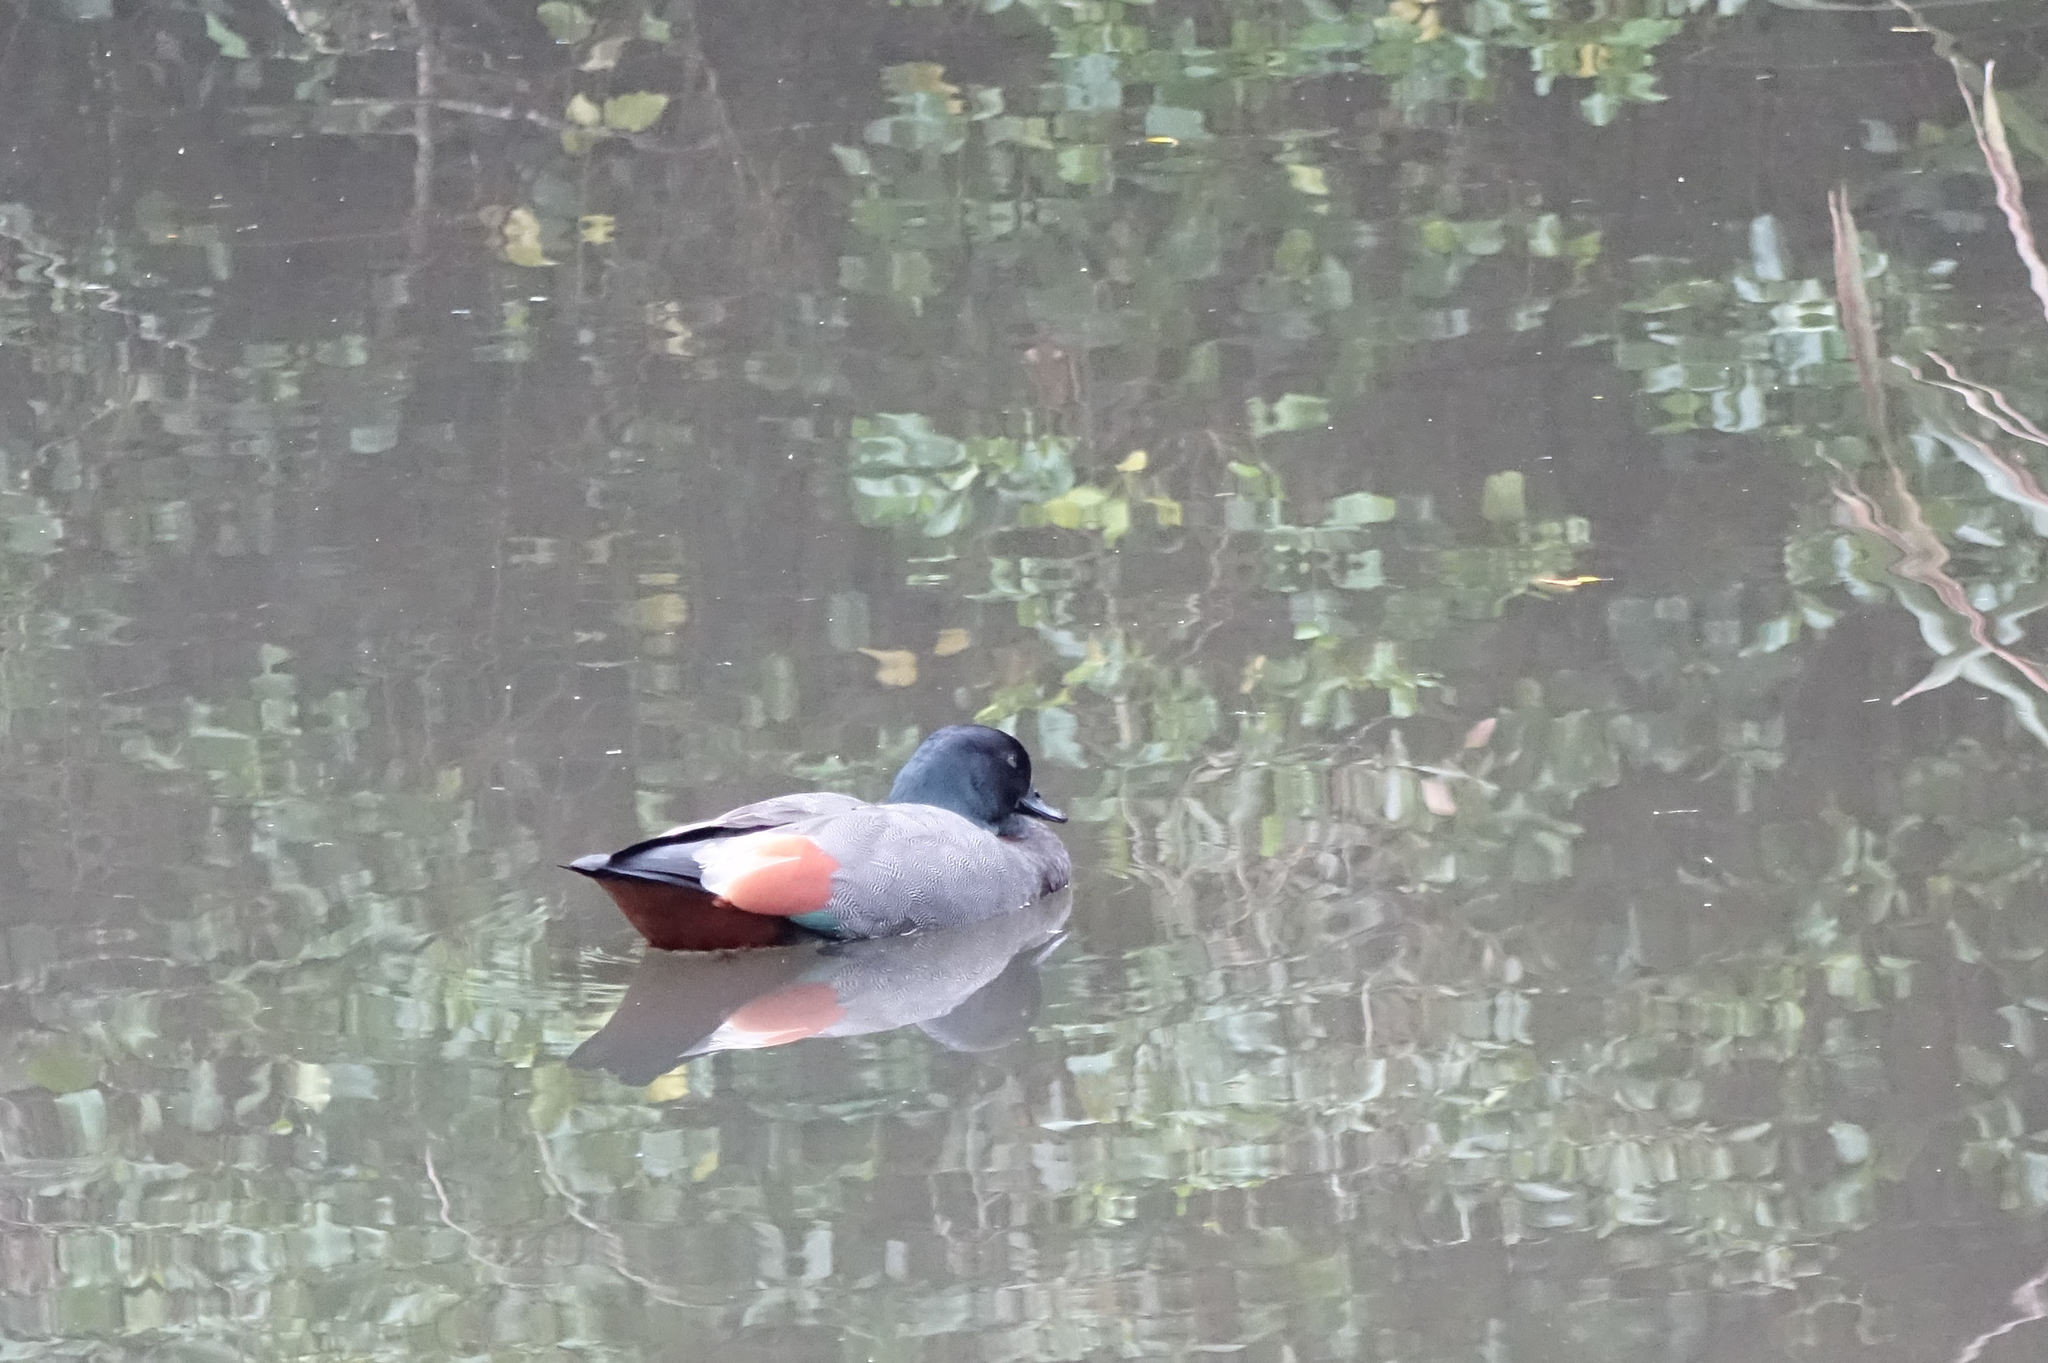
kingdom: Animalia
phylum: Chordata
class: Aves
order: Anseriformes
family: Anatidae
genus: Tadorna
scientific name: Tadorna variegata
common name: Paradise shelduck
